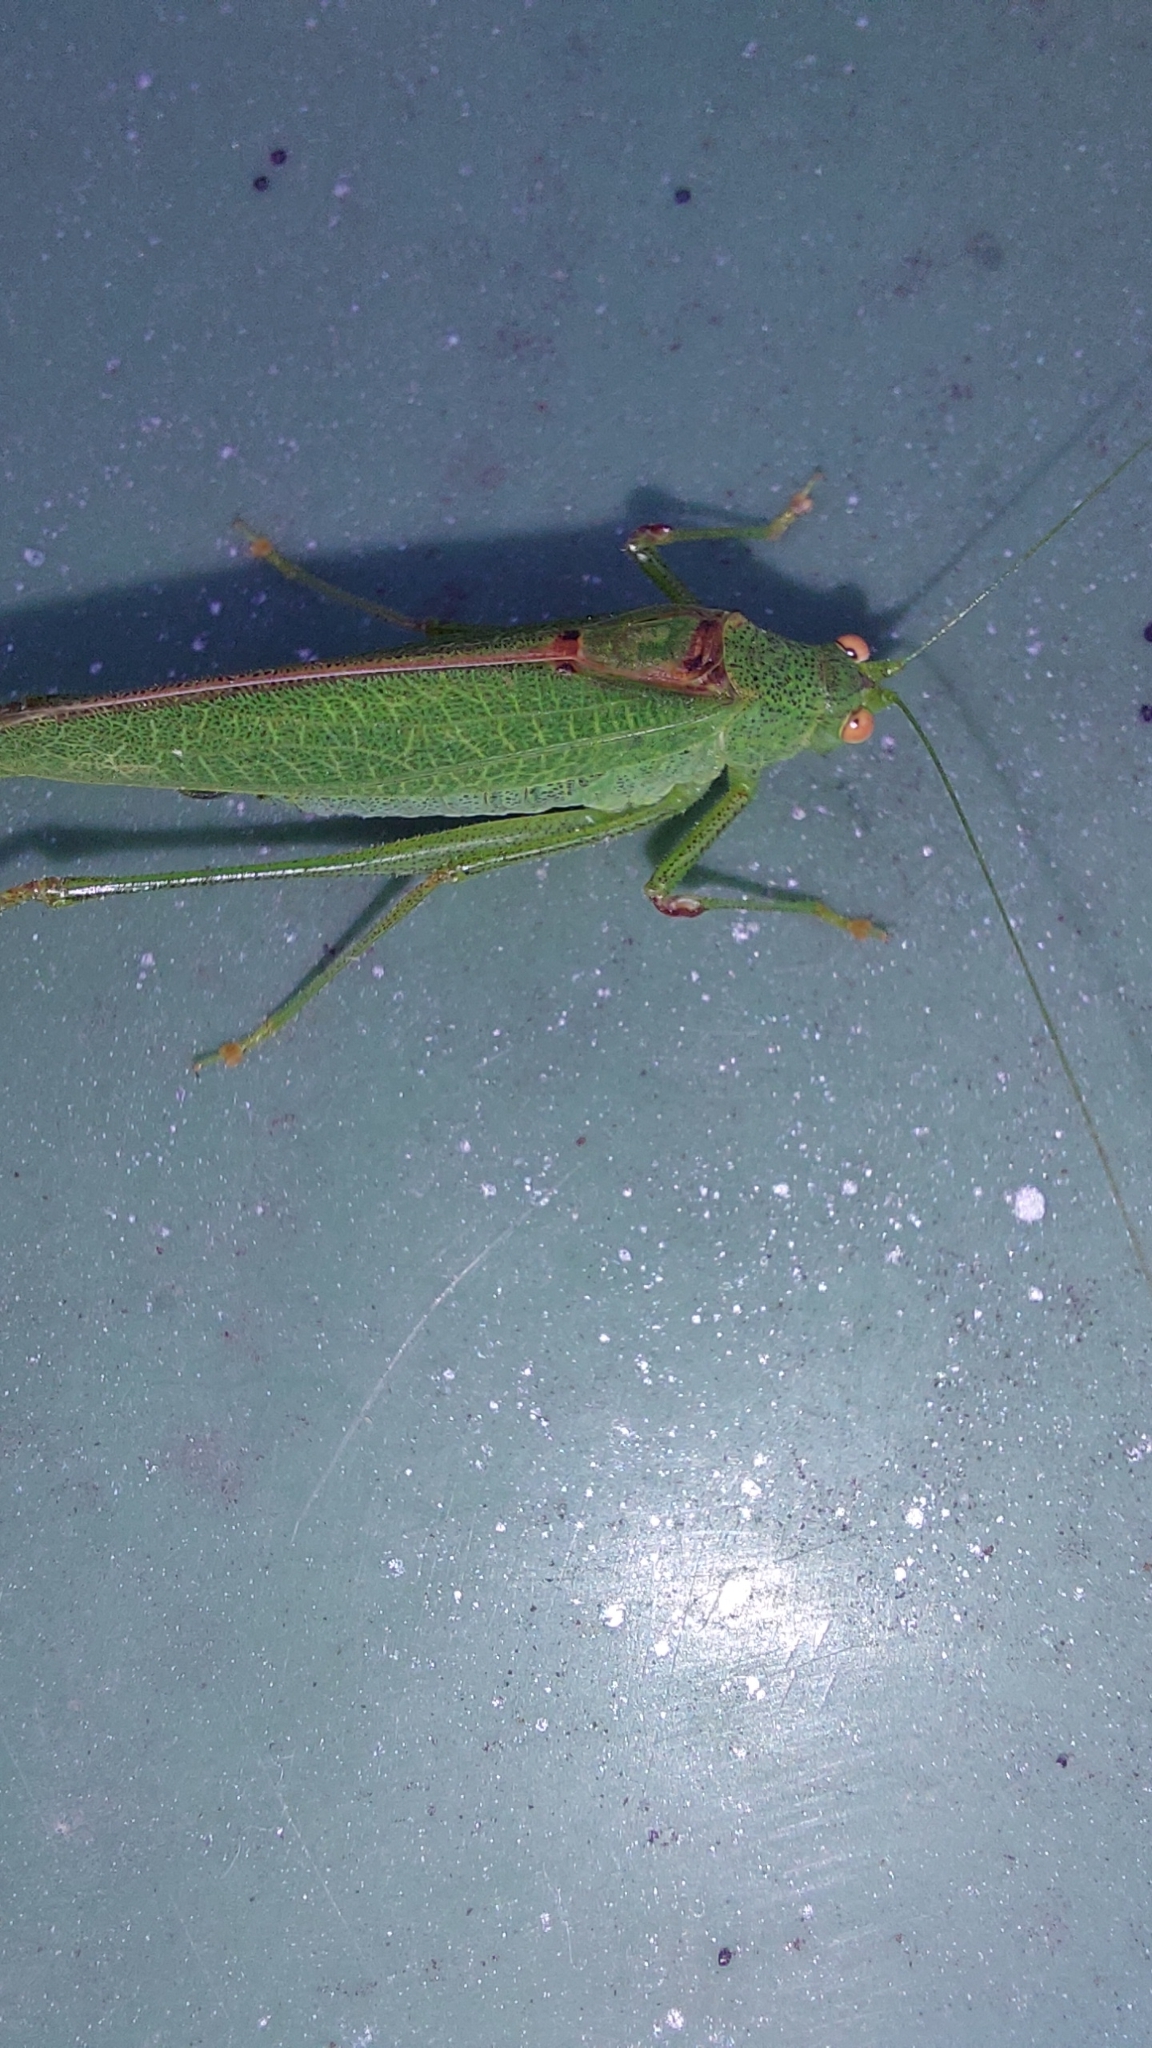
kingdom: Animalia
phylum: Arthropoda
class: Insecta
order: Orthoptera
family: Tettigoniidae
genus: Phaneroptera
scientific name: Phaneroptera nana
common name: Southern sickle bush-cricket
